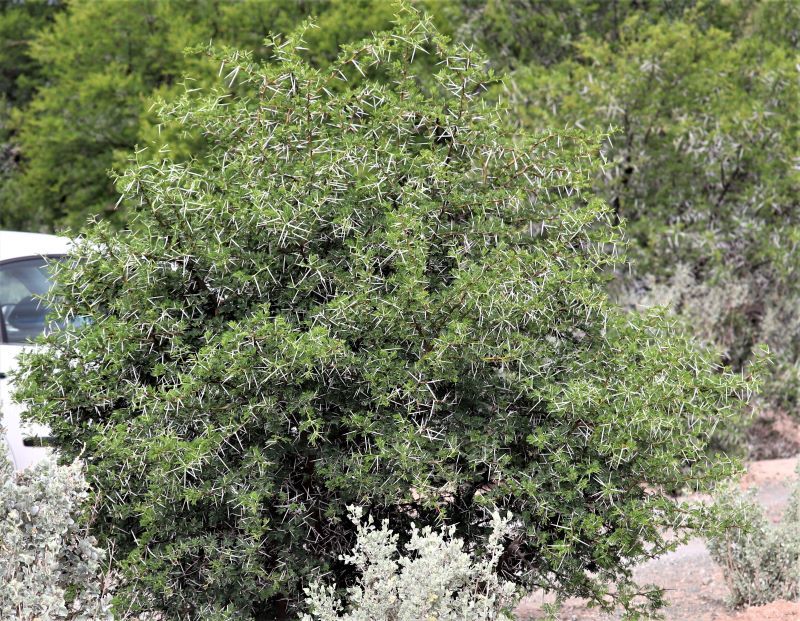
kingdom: Plantae
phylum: Tracheophyta
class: Magnoliopsida
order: Fabales
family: Fabaceae
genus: Vachellia
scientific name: Vachellia karroo
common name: Sweet thorn
